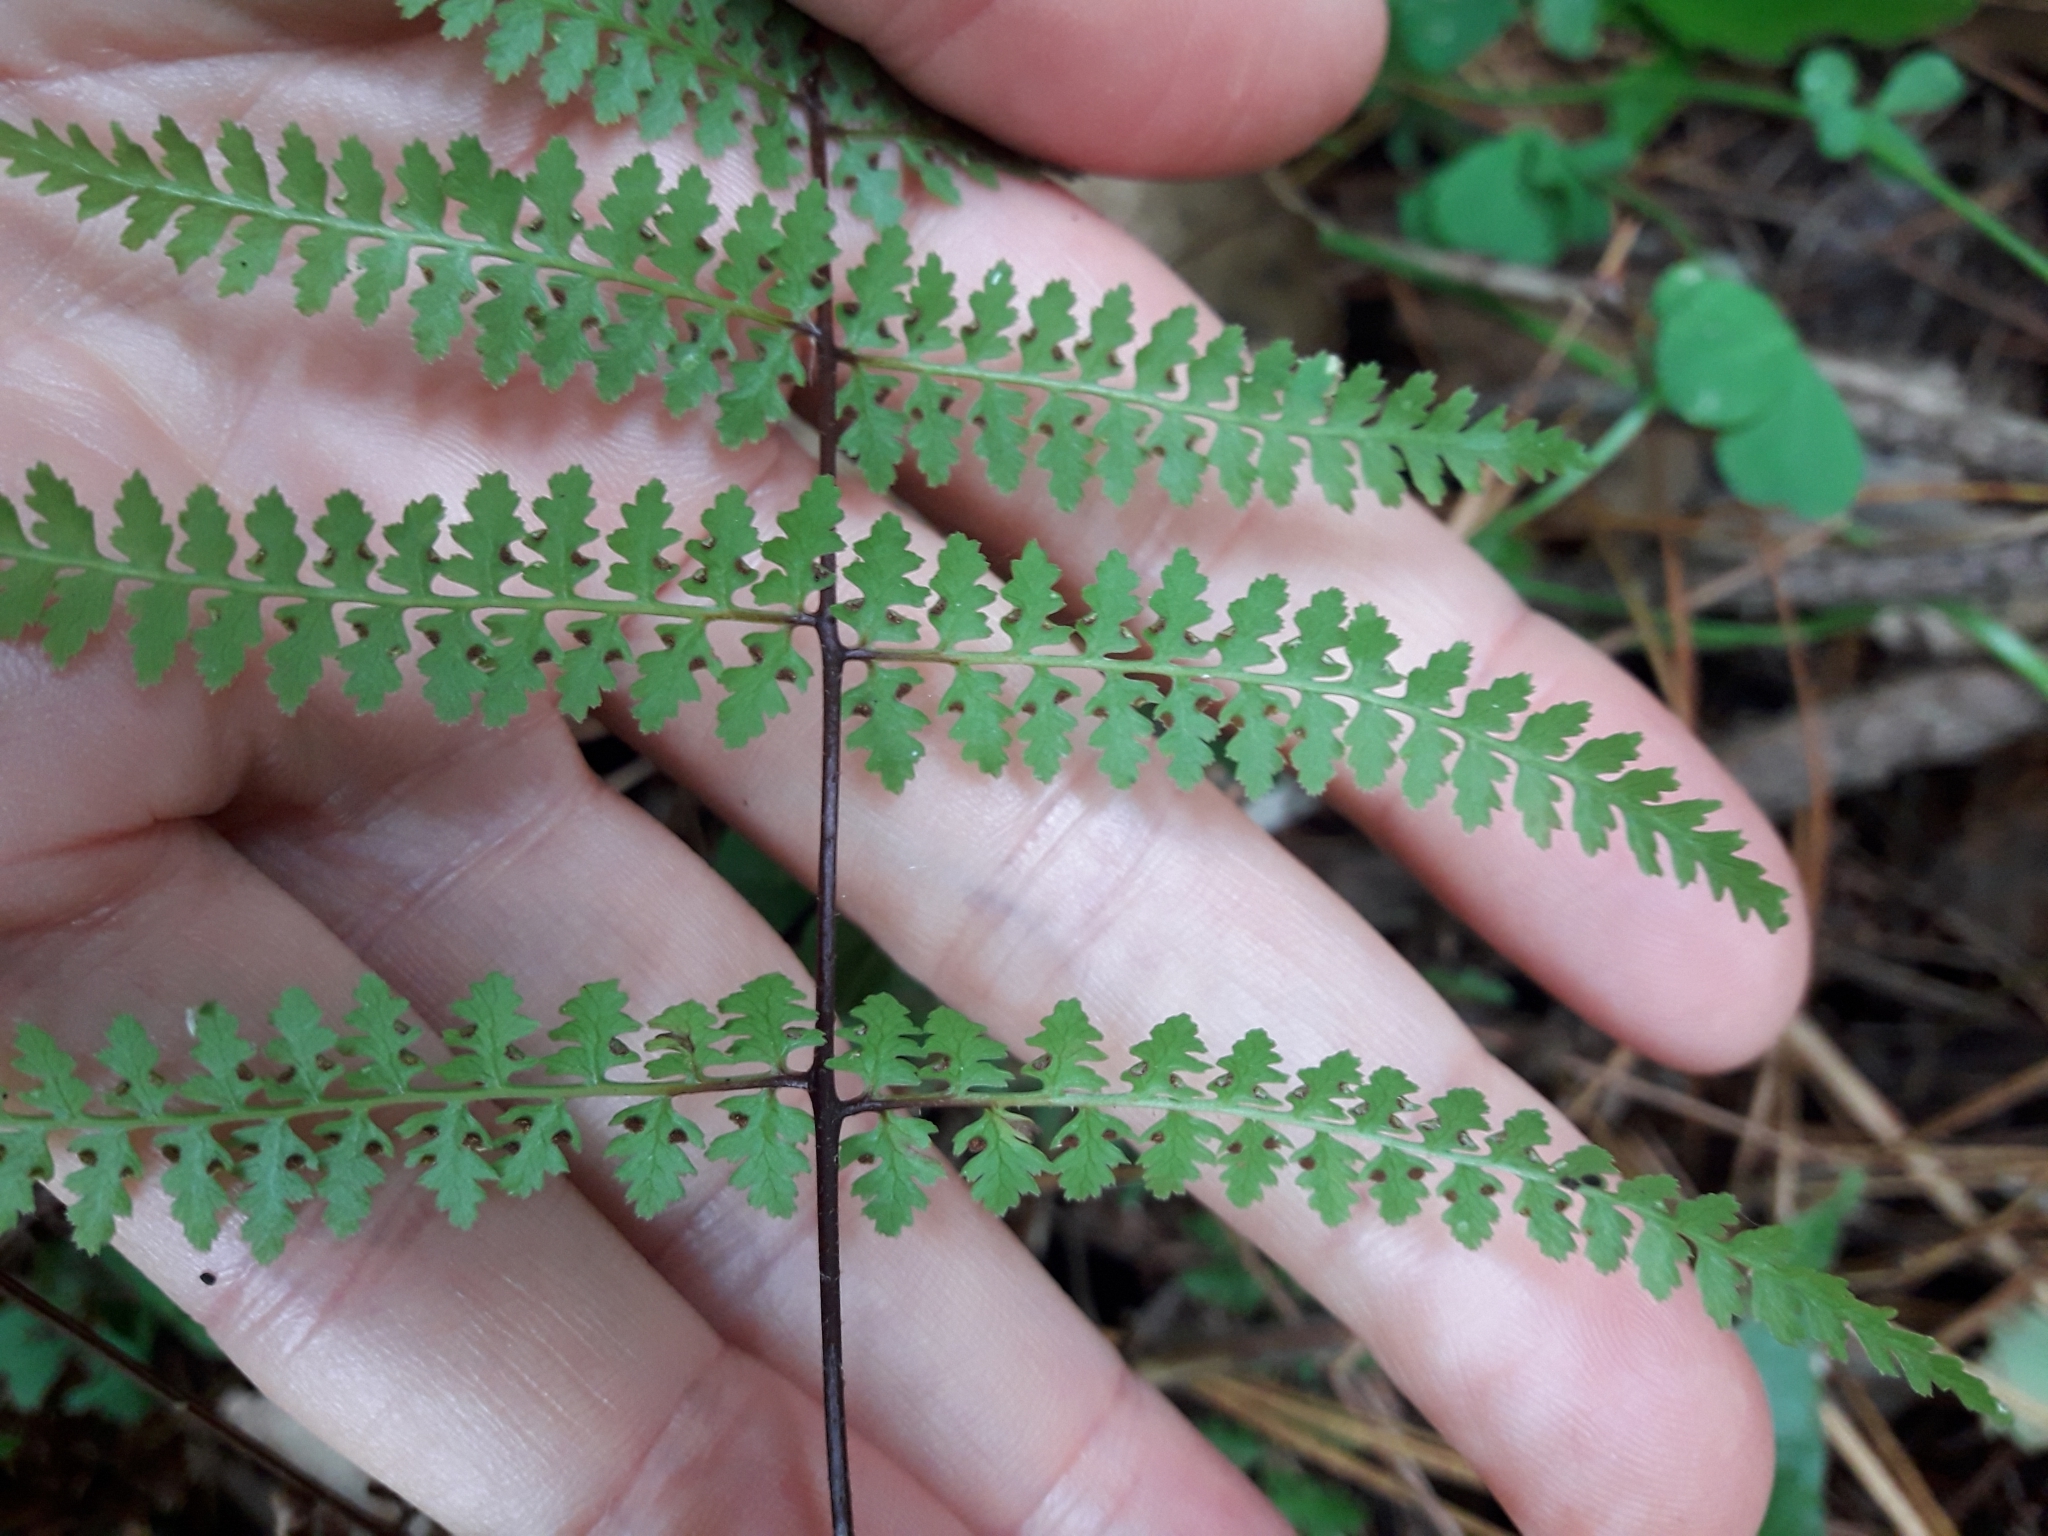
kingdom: Plantae
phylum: Tracheophyta
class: Polypodiopsida
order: Polypodiales
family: Dennstaedtiaceae
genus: Hiya
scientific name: Hiya distans
